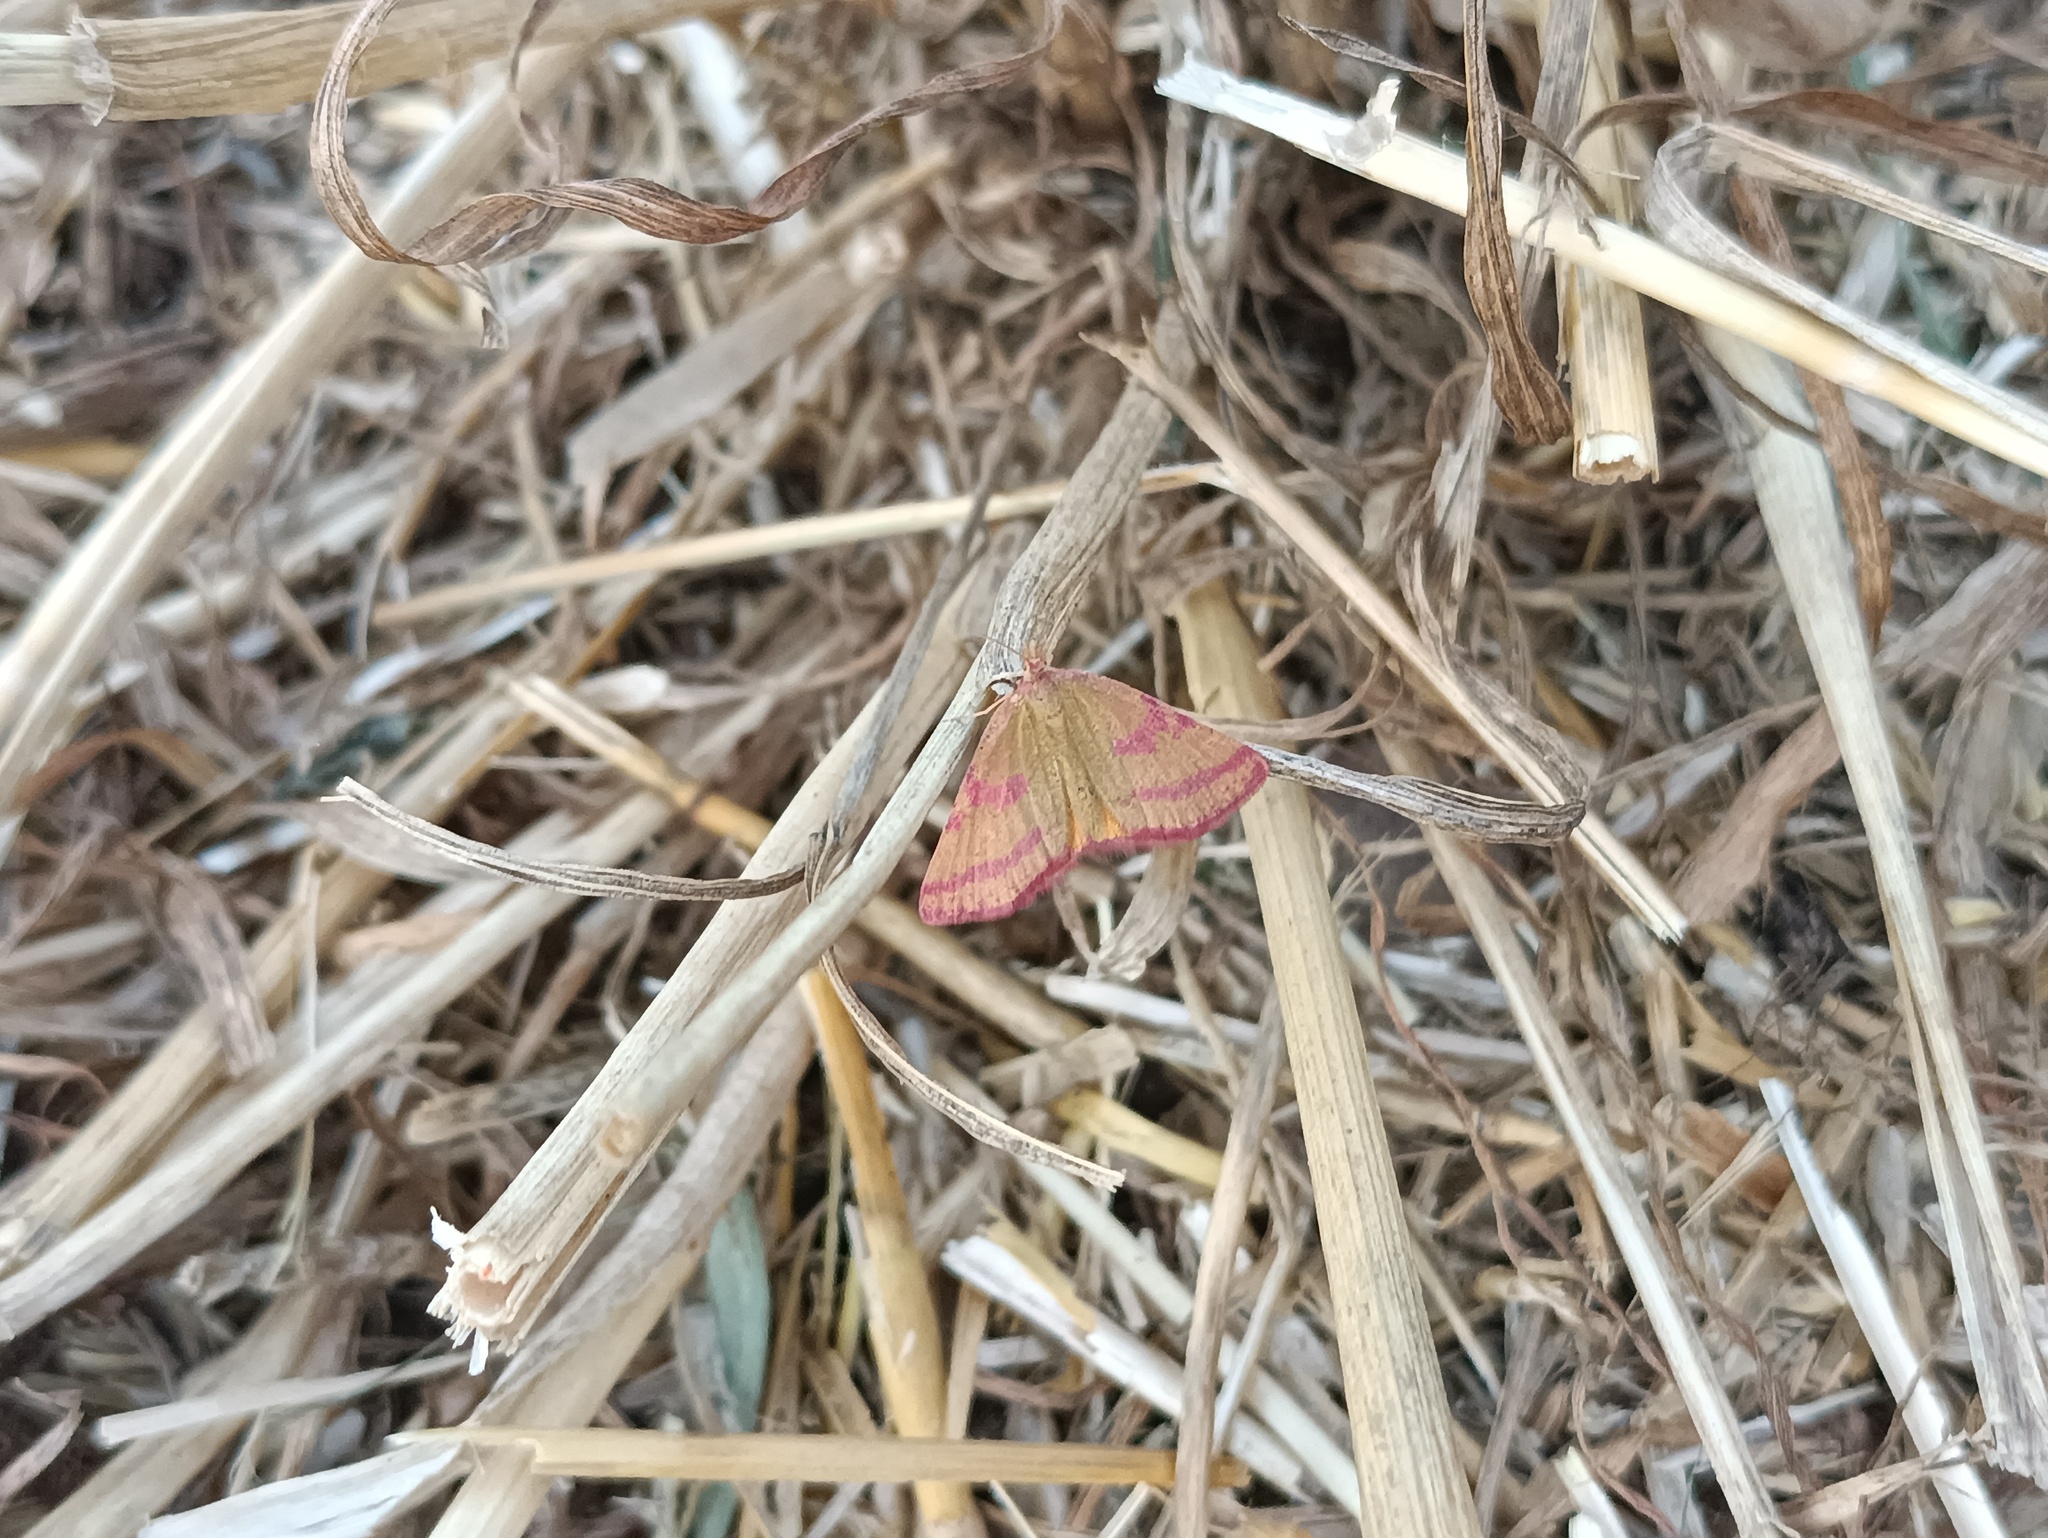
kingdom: Animalia
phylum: Arthropoda
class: Insecta
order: Lepidoptera
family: Geometridae
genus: Lythria
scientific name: Lythria purpuraria
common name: Purple-barred yellow
